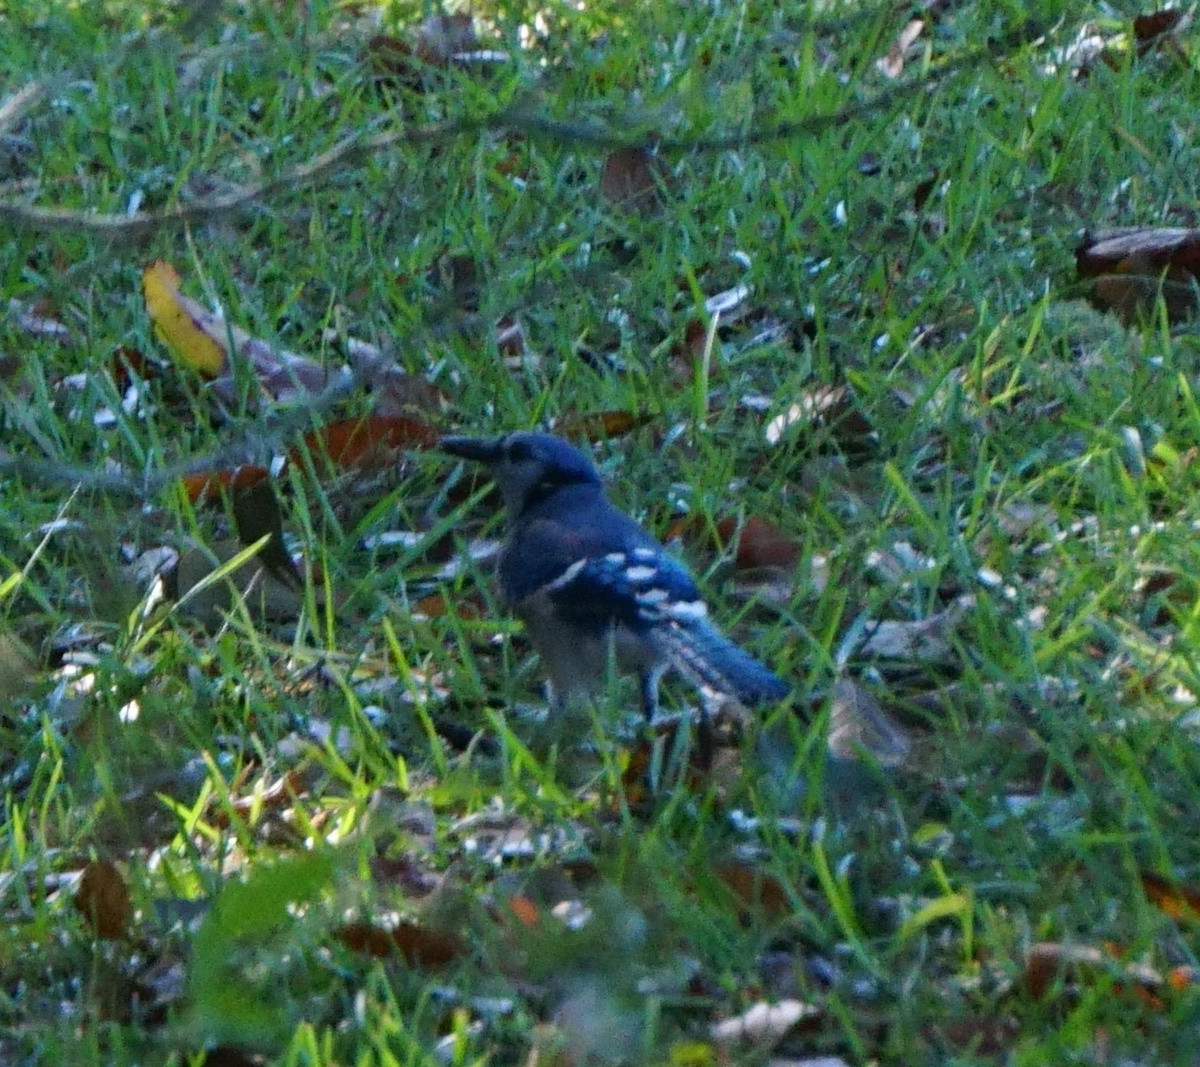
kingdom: Animalia
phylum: Chordata
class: Aves
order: Passeriformes
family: Corvidae
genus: Cyanocitta
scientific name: Cyanocitta cristata
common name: Blue jay
